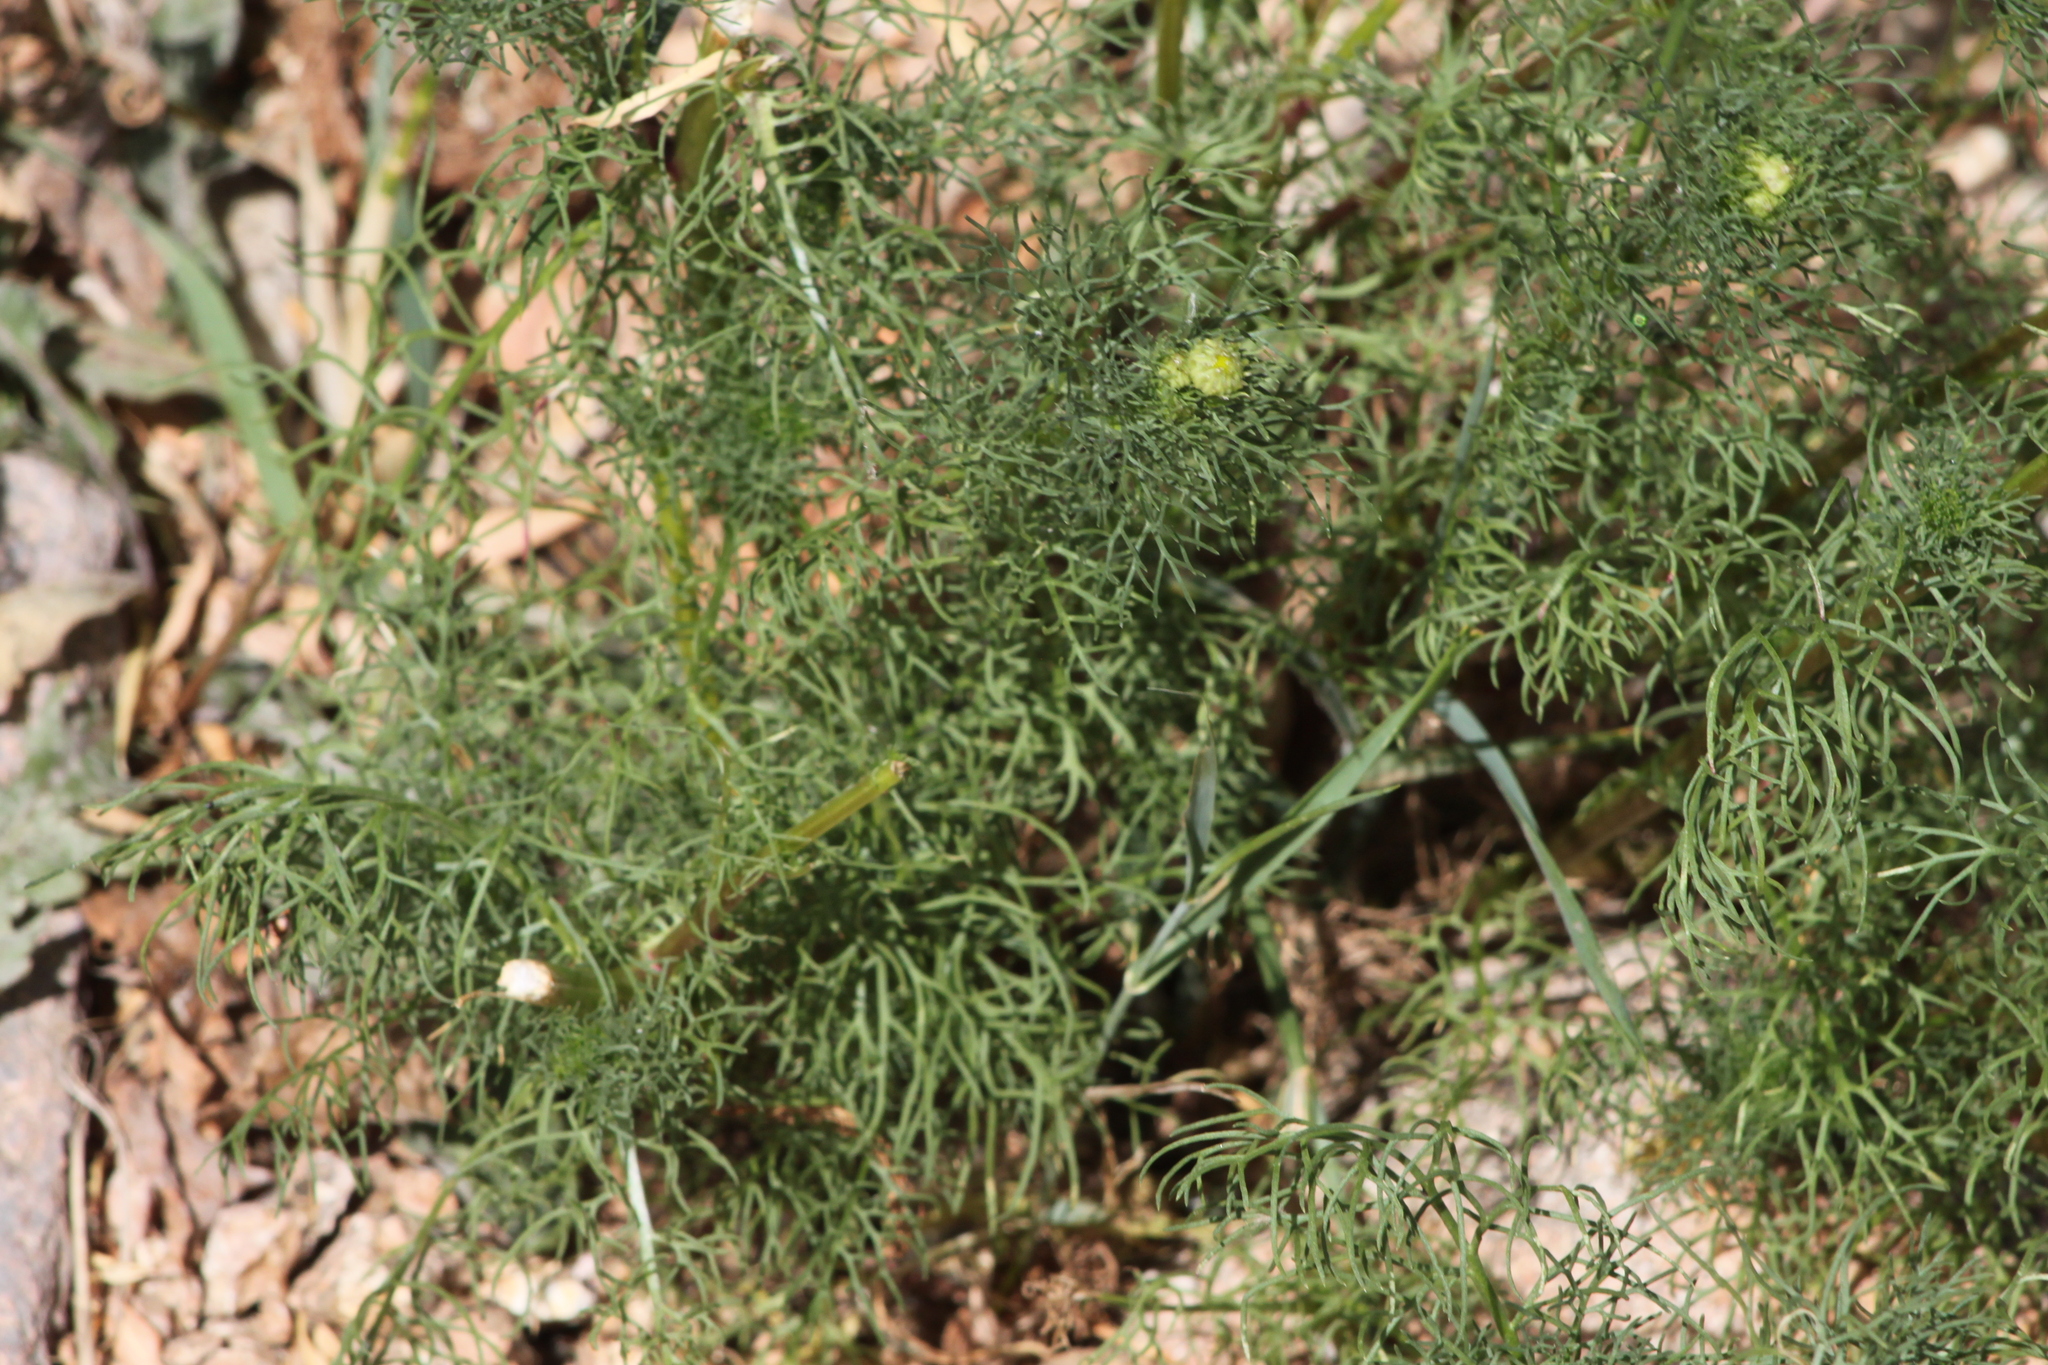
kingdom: Plantae
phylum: Tracheophyta
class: Magnoliopsida
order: Asterales
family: Asteraceae
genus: Matricaria
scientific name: Matricaria discoidea
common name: Disc mayweed
